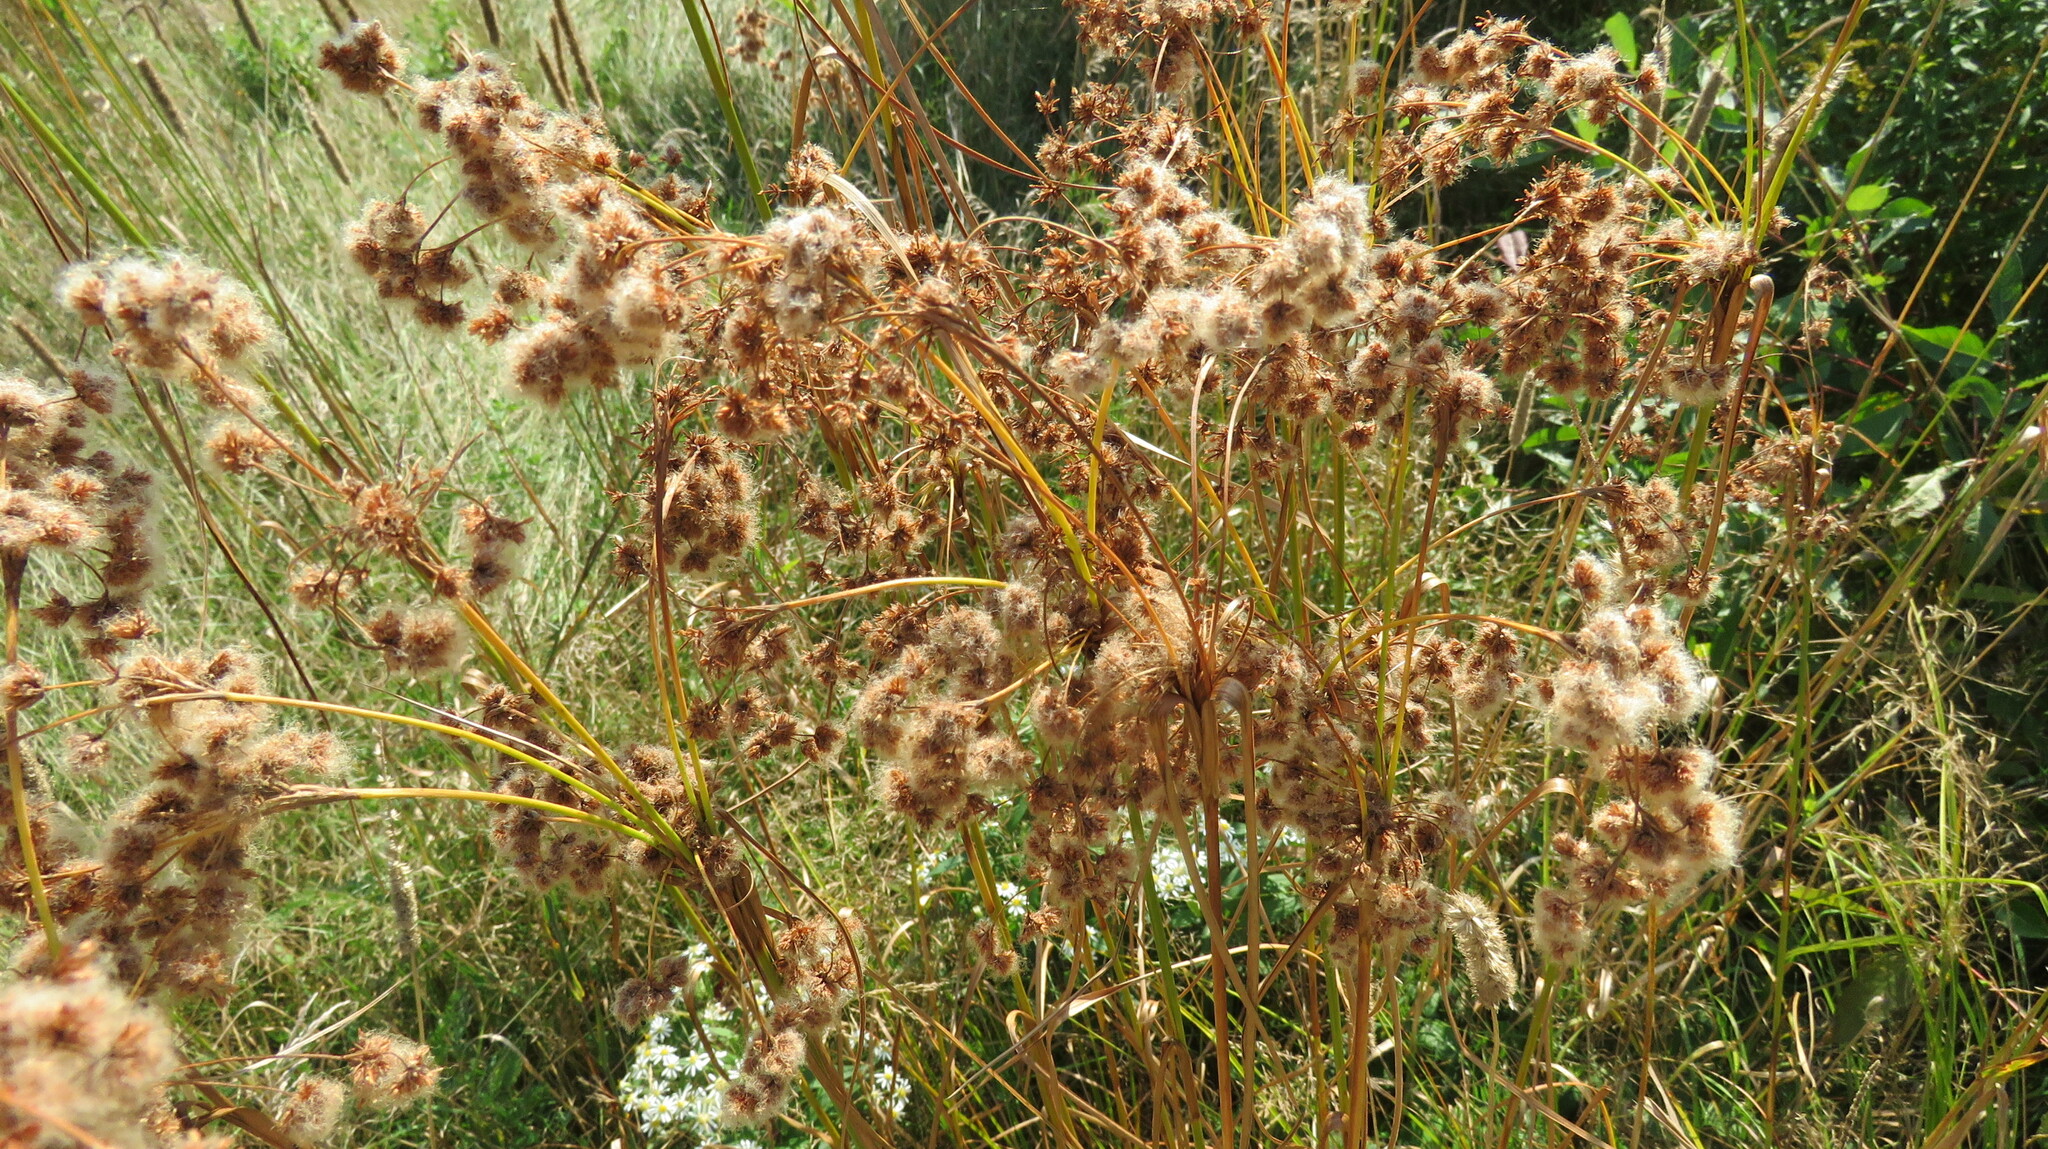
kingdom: Plantae
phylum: Tracheophyta
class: Liliopsida
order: Poales
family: Cyperaceae
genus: Scirpus
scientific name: Scirpus cyperinus
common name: Black-sheathed bulrush
